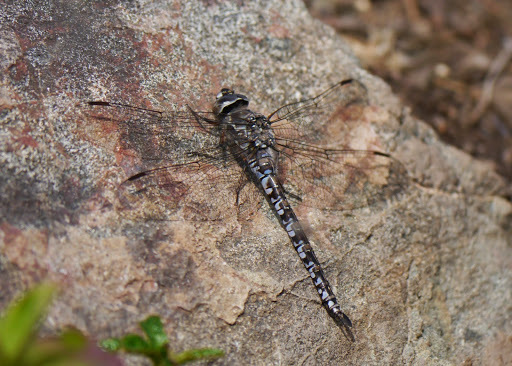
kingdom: Animalia
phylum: Arthropoda
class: Insecta
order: Odonata
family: Aeshnidae
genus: Aeshna
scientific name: Aeshna sitchensis
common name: Zigzag darner
